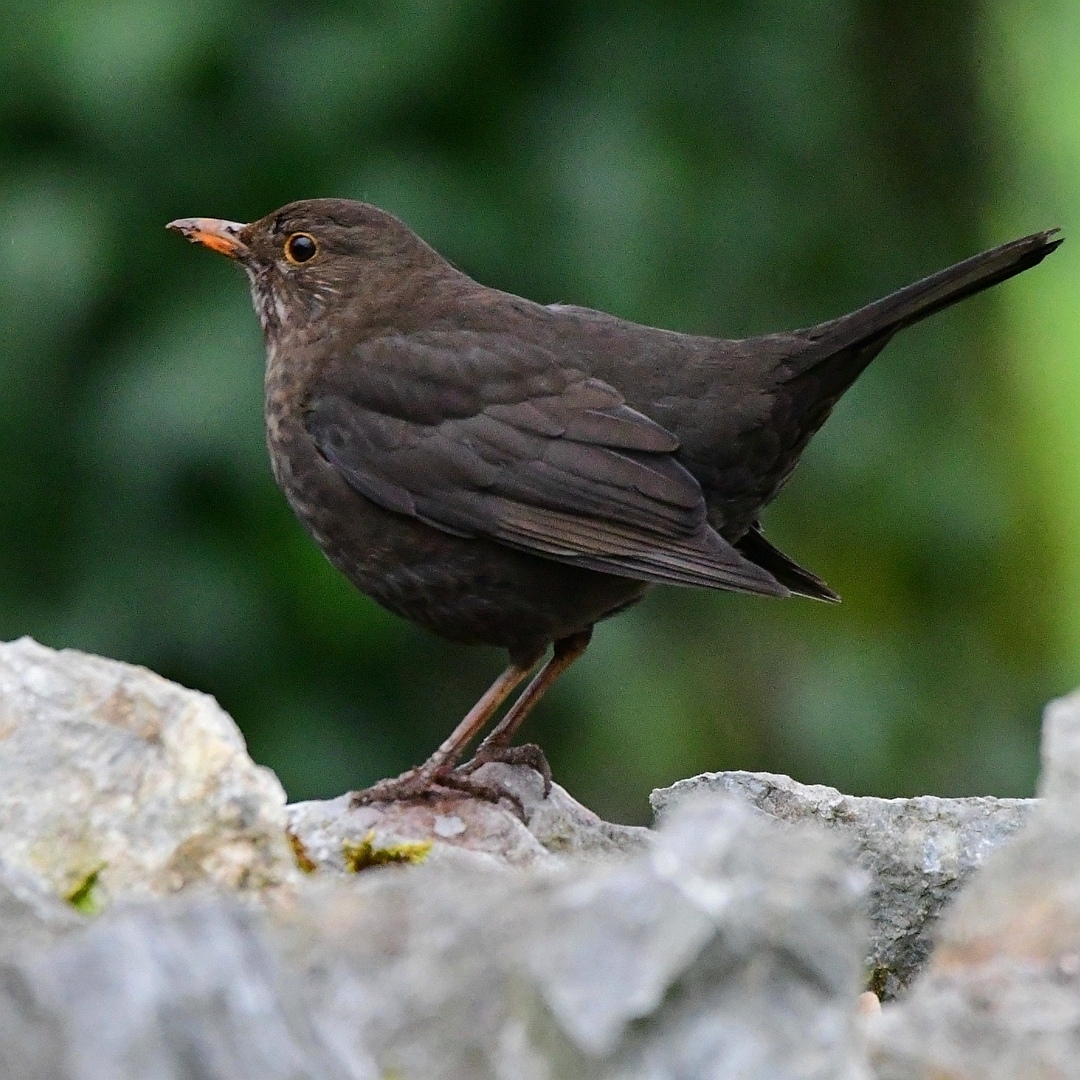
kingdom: Animalia
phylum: Chordata
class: Aves
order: Passeriformes
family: Turdidae
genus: Turdus
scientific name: Turdus merula
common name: Common blackbird
